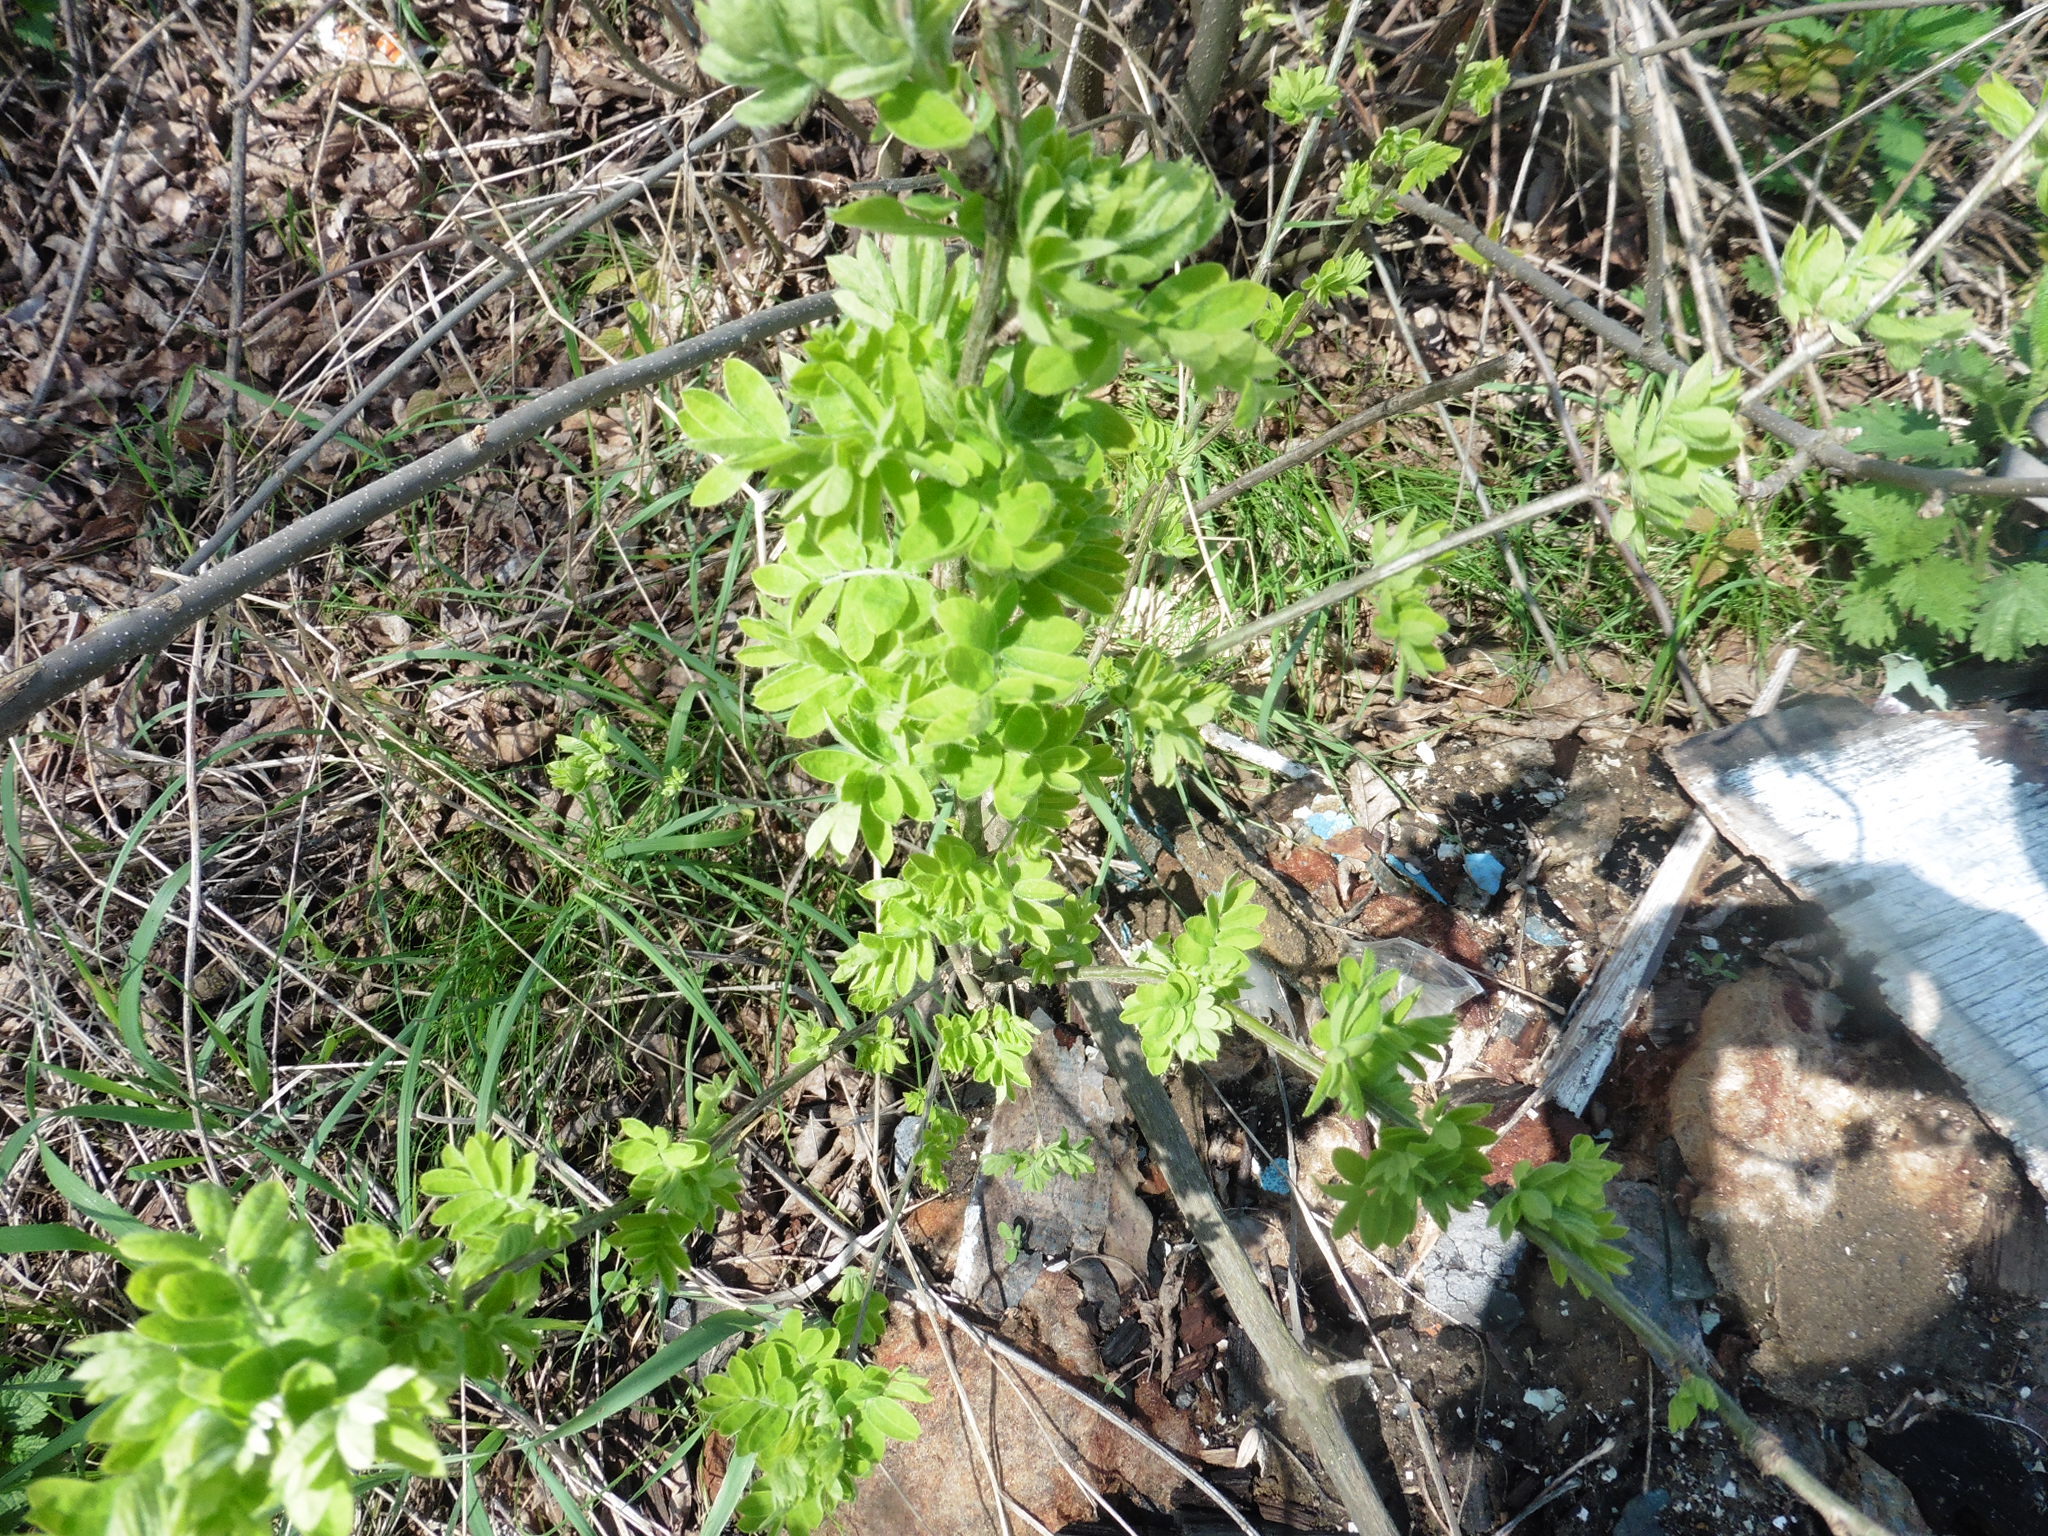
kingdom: Plantae
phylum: Tracheophyta
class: Magnoliopsida
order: Fabales
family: Fabaceae
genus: Caragana
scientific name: Caragana arborescens
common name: Siberian peashrub
